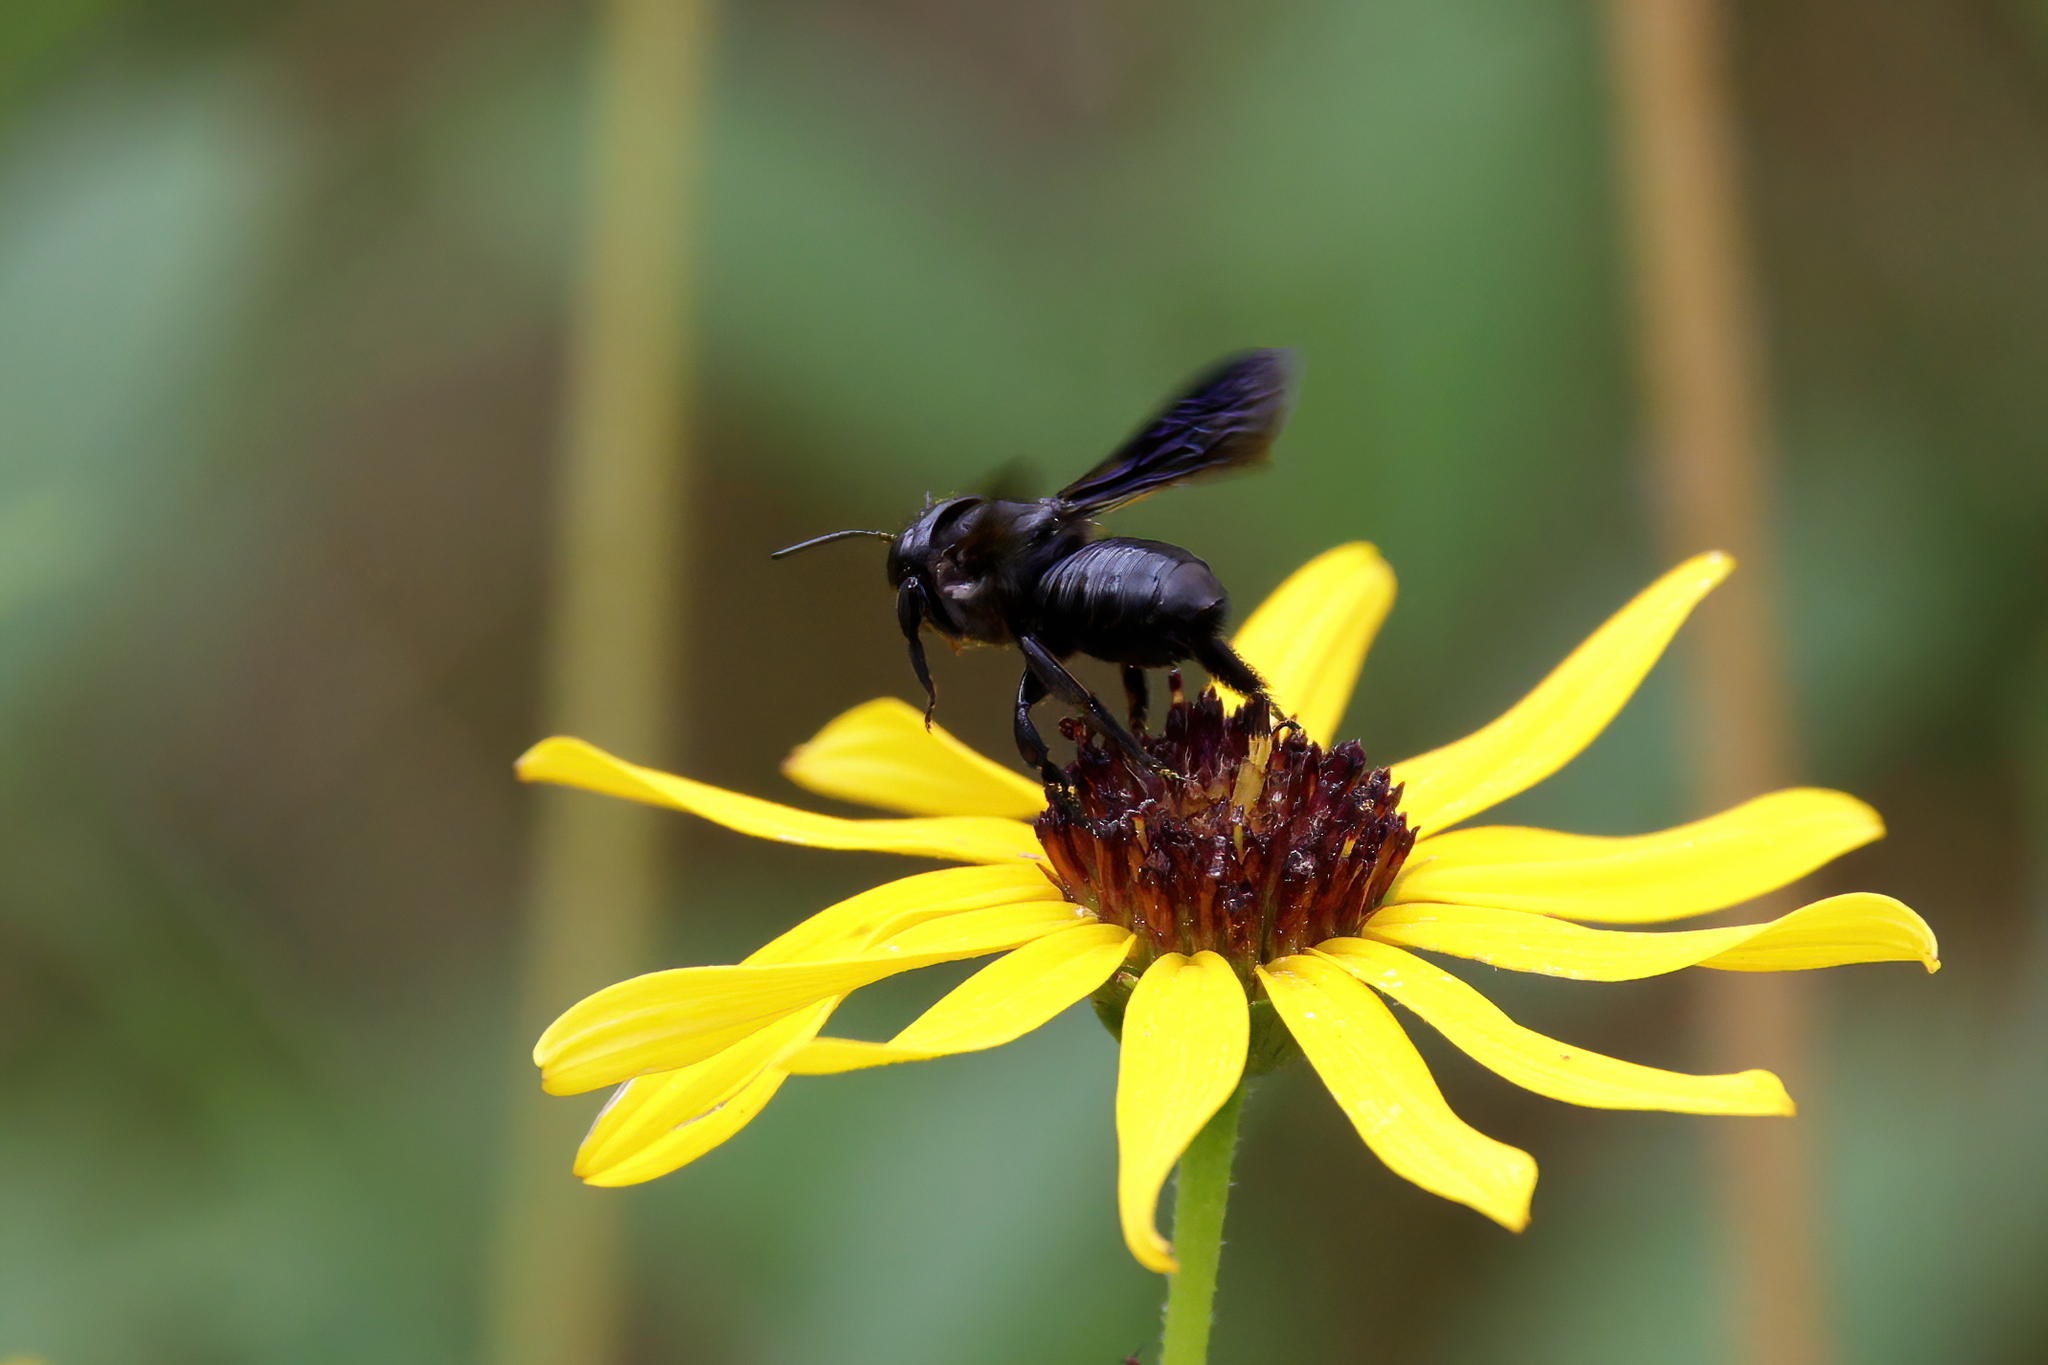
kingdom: Animalia
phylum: Arthropoda
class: Insecta
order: Hymenoptera
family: Megachilidae
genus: Megachile
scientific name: Megachile xylocopoides
